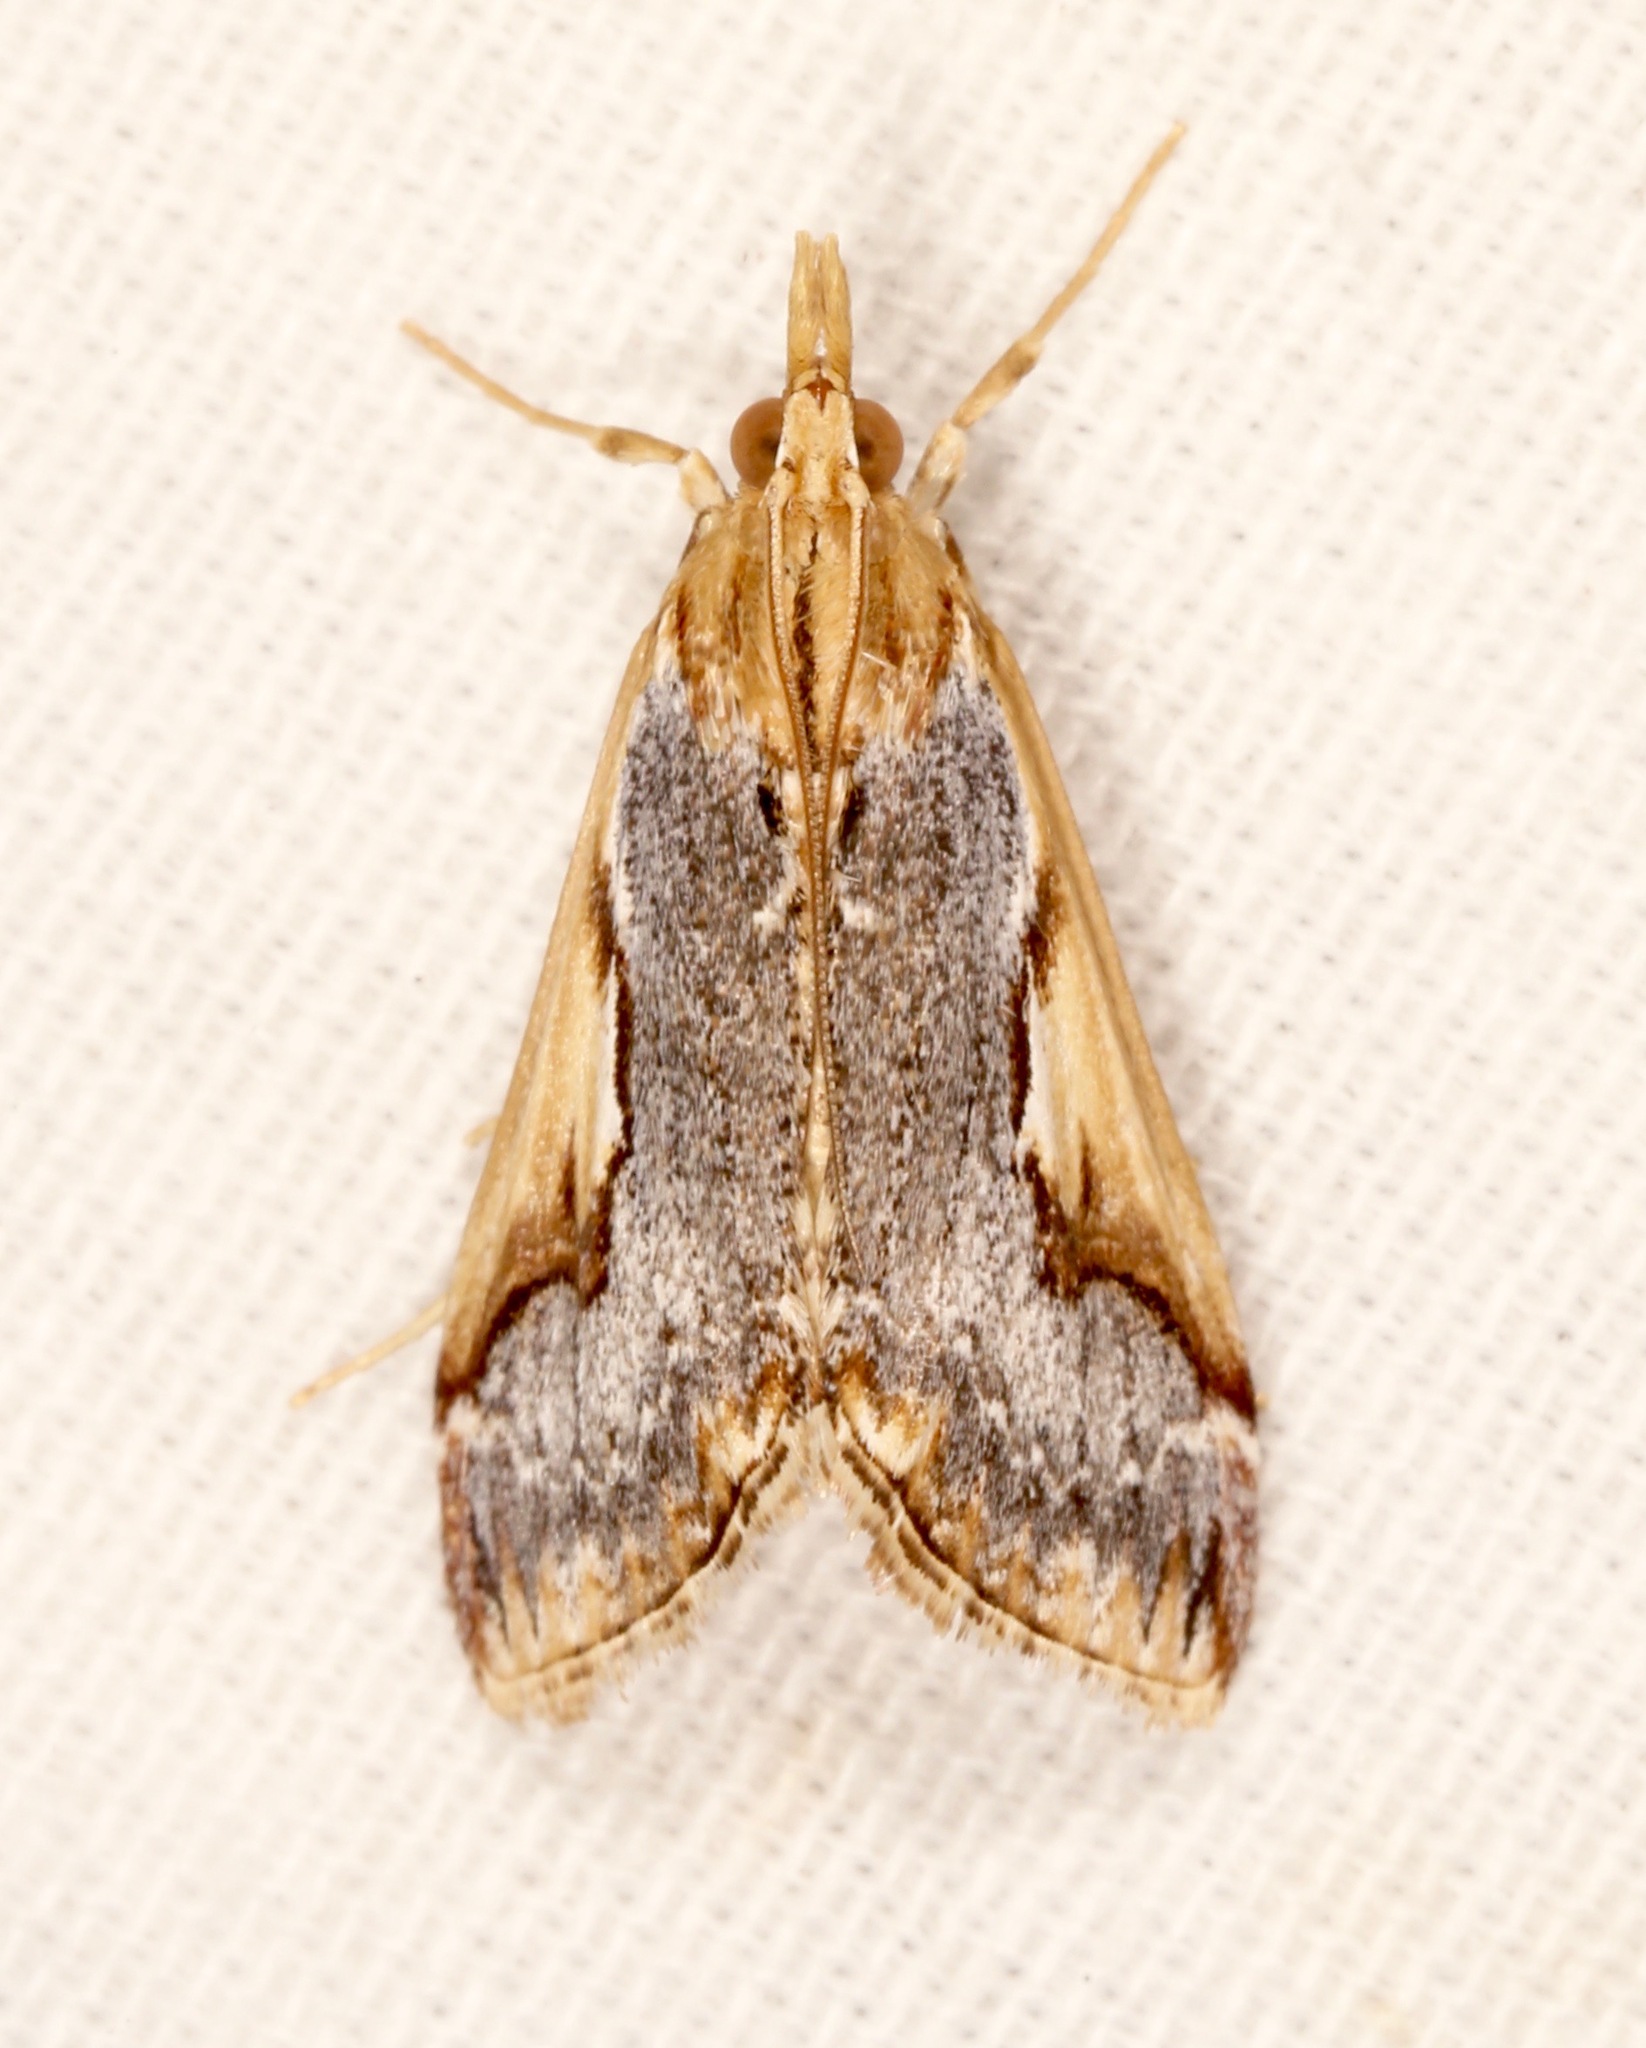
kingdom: Animalia
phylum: Arthropoda
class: Insecta
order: Lepidoptera
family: Crambidae
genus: Loxostege
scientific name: Loxostege albiceralis
